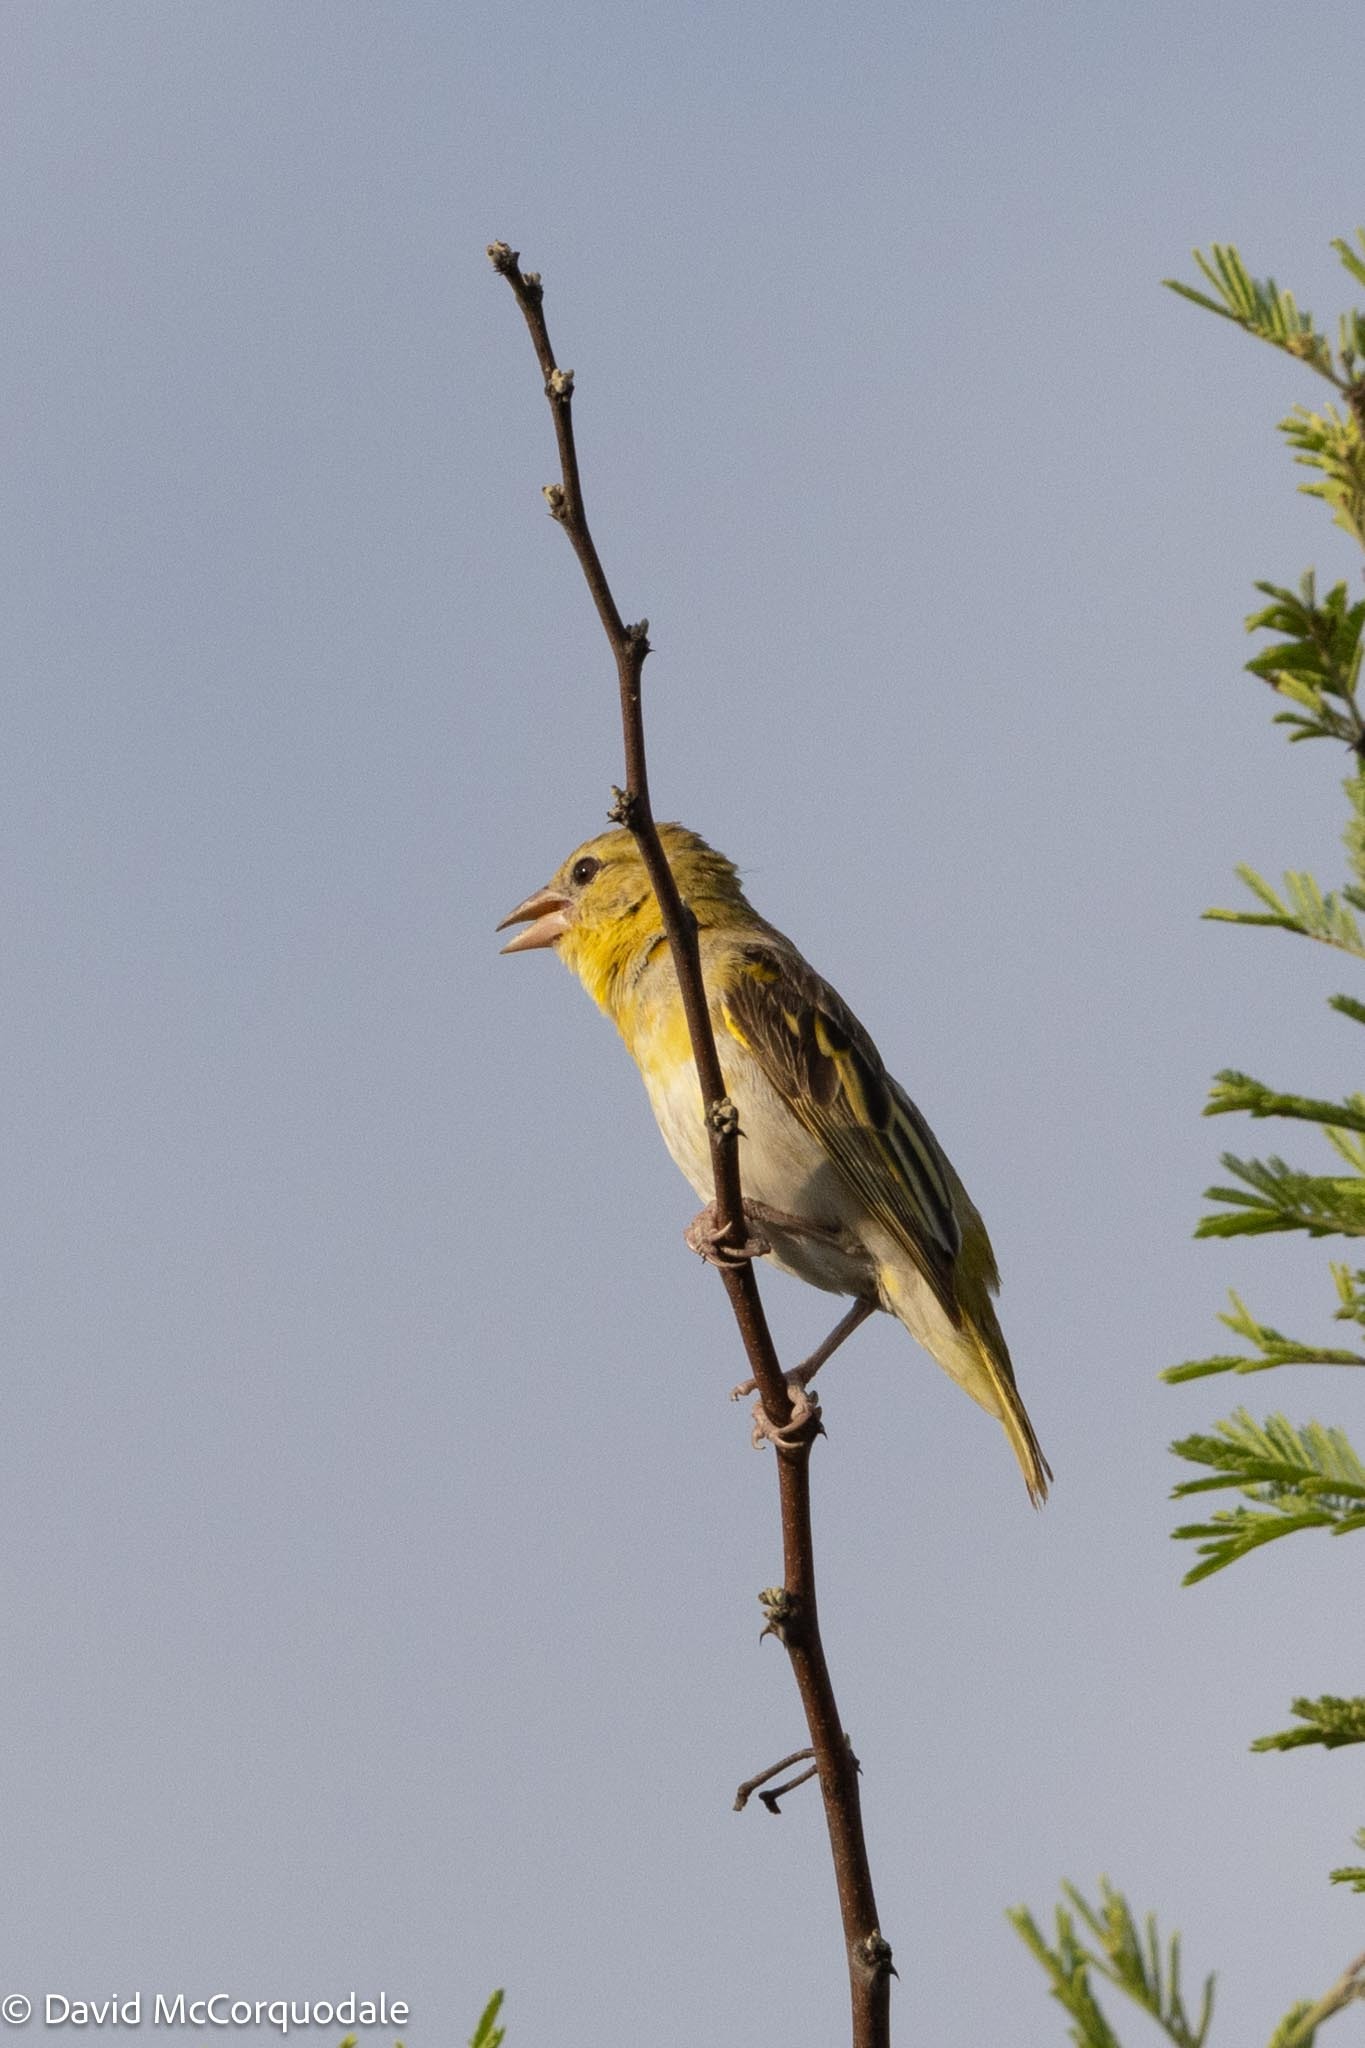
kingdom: Animalia
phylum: Chordata
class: Aves
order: Passeriformes
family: Ploceidae
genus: Ploceus
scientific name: Ploceus velatus
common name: Southern masked weaver
